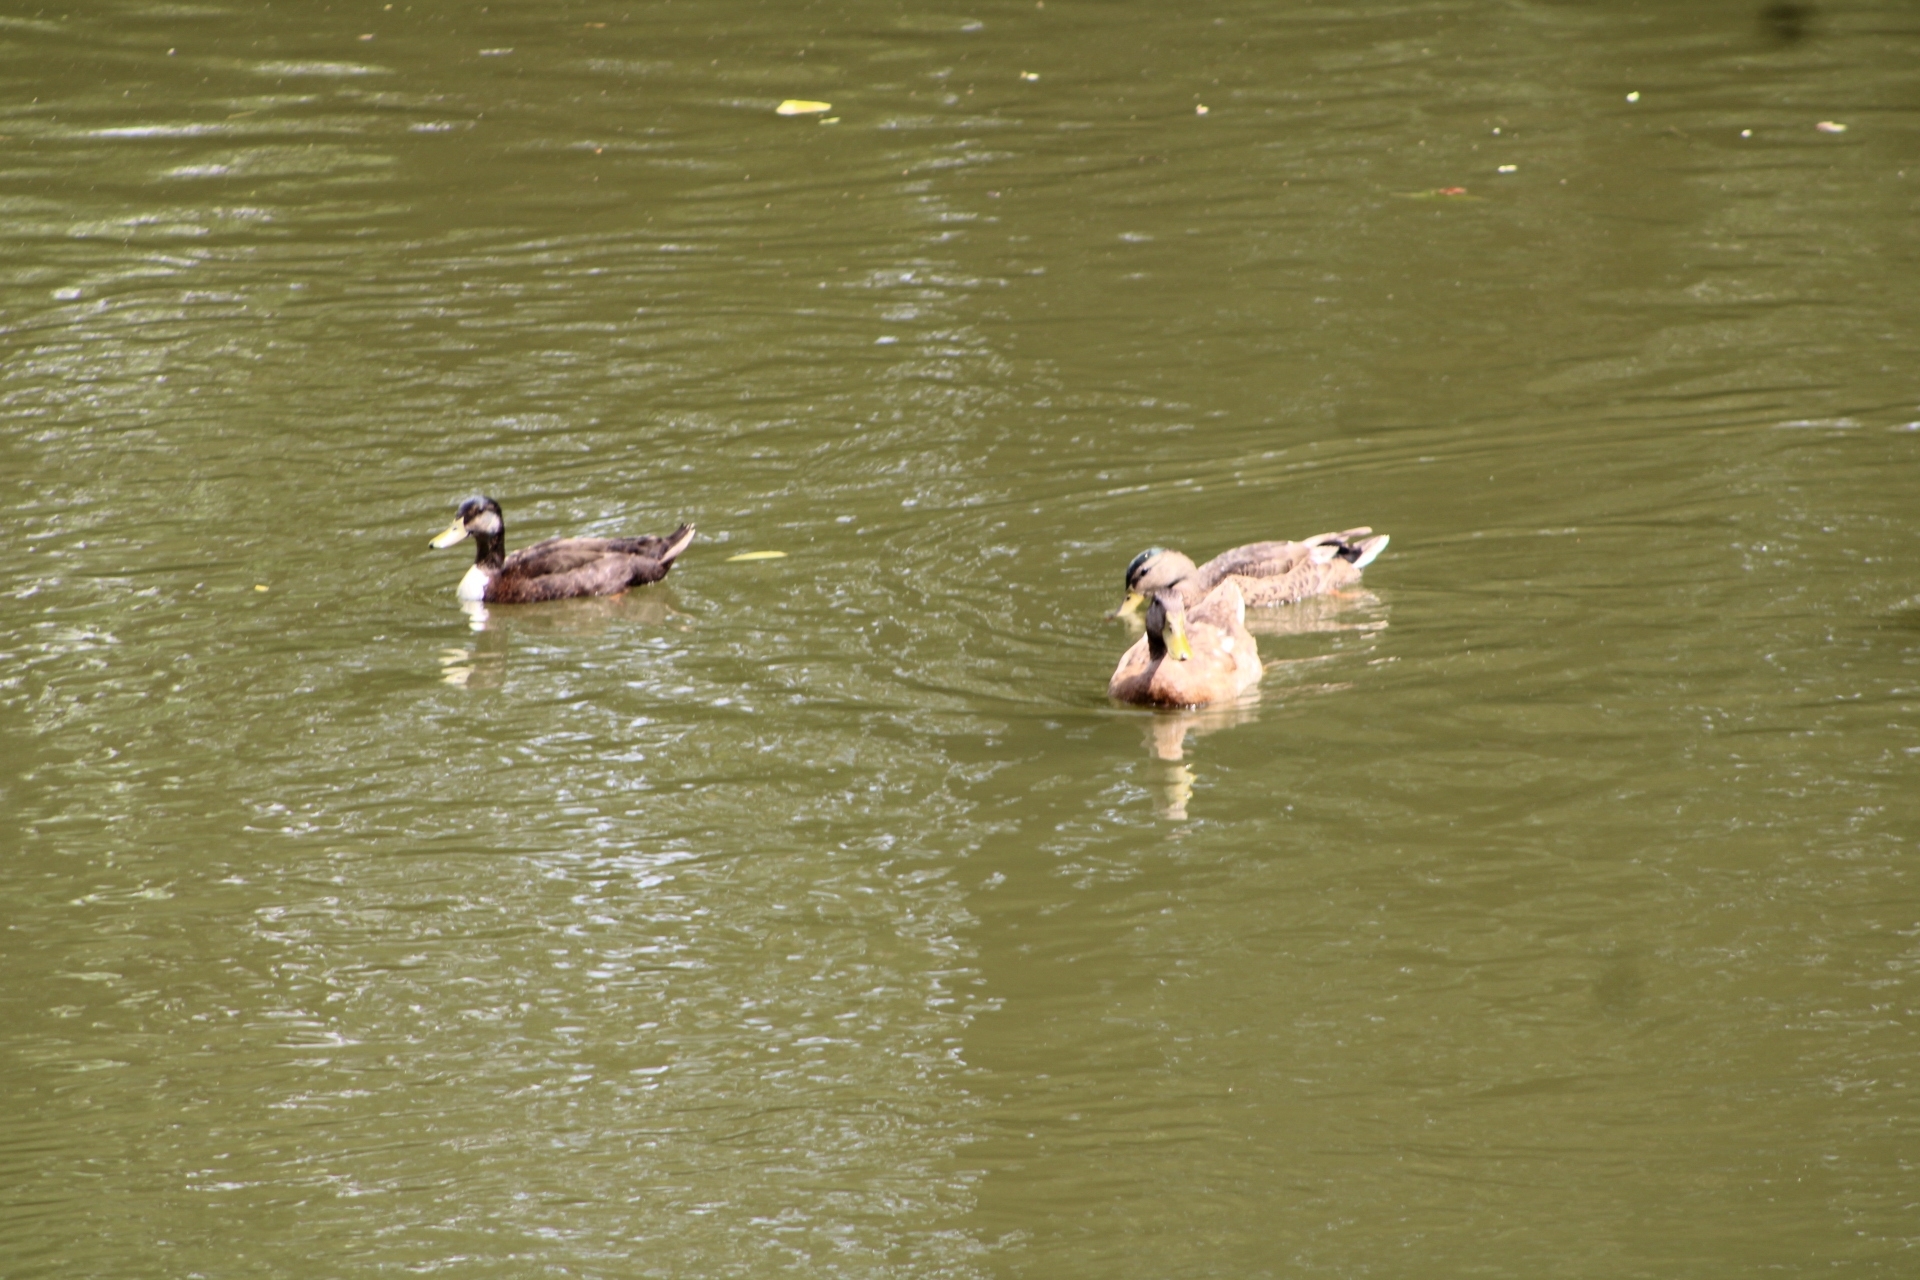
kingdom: Animalia
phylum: Chordata
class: Aves
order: Anseriformes
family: Anatidae
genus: Anas
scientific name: Anas platyrhynchos
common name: Mallard
